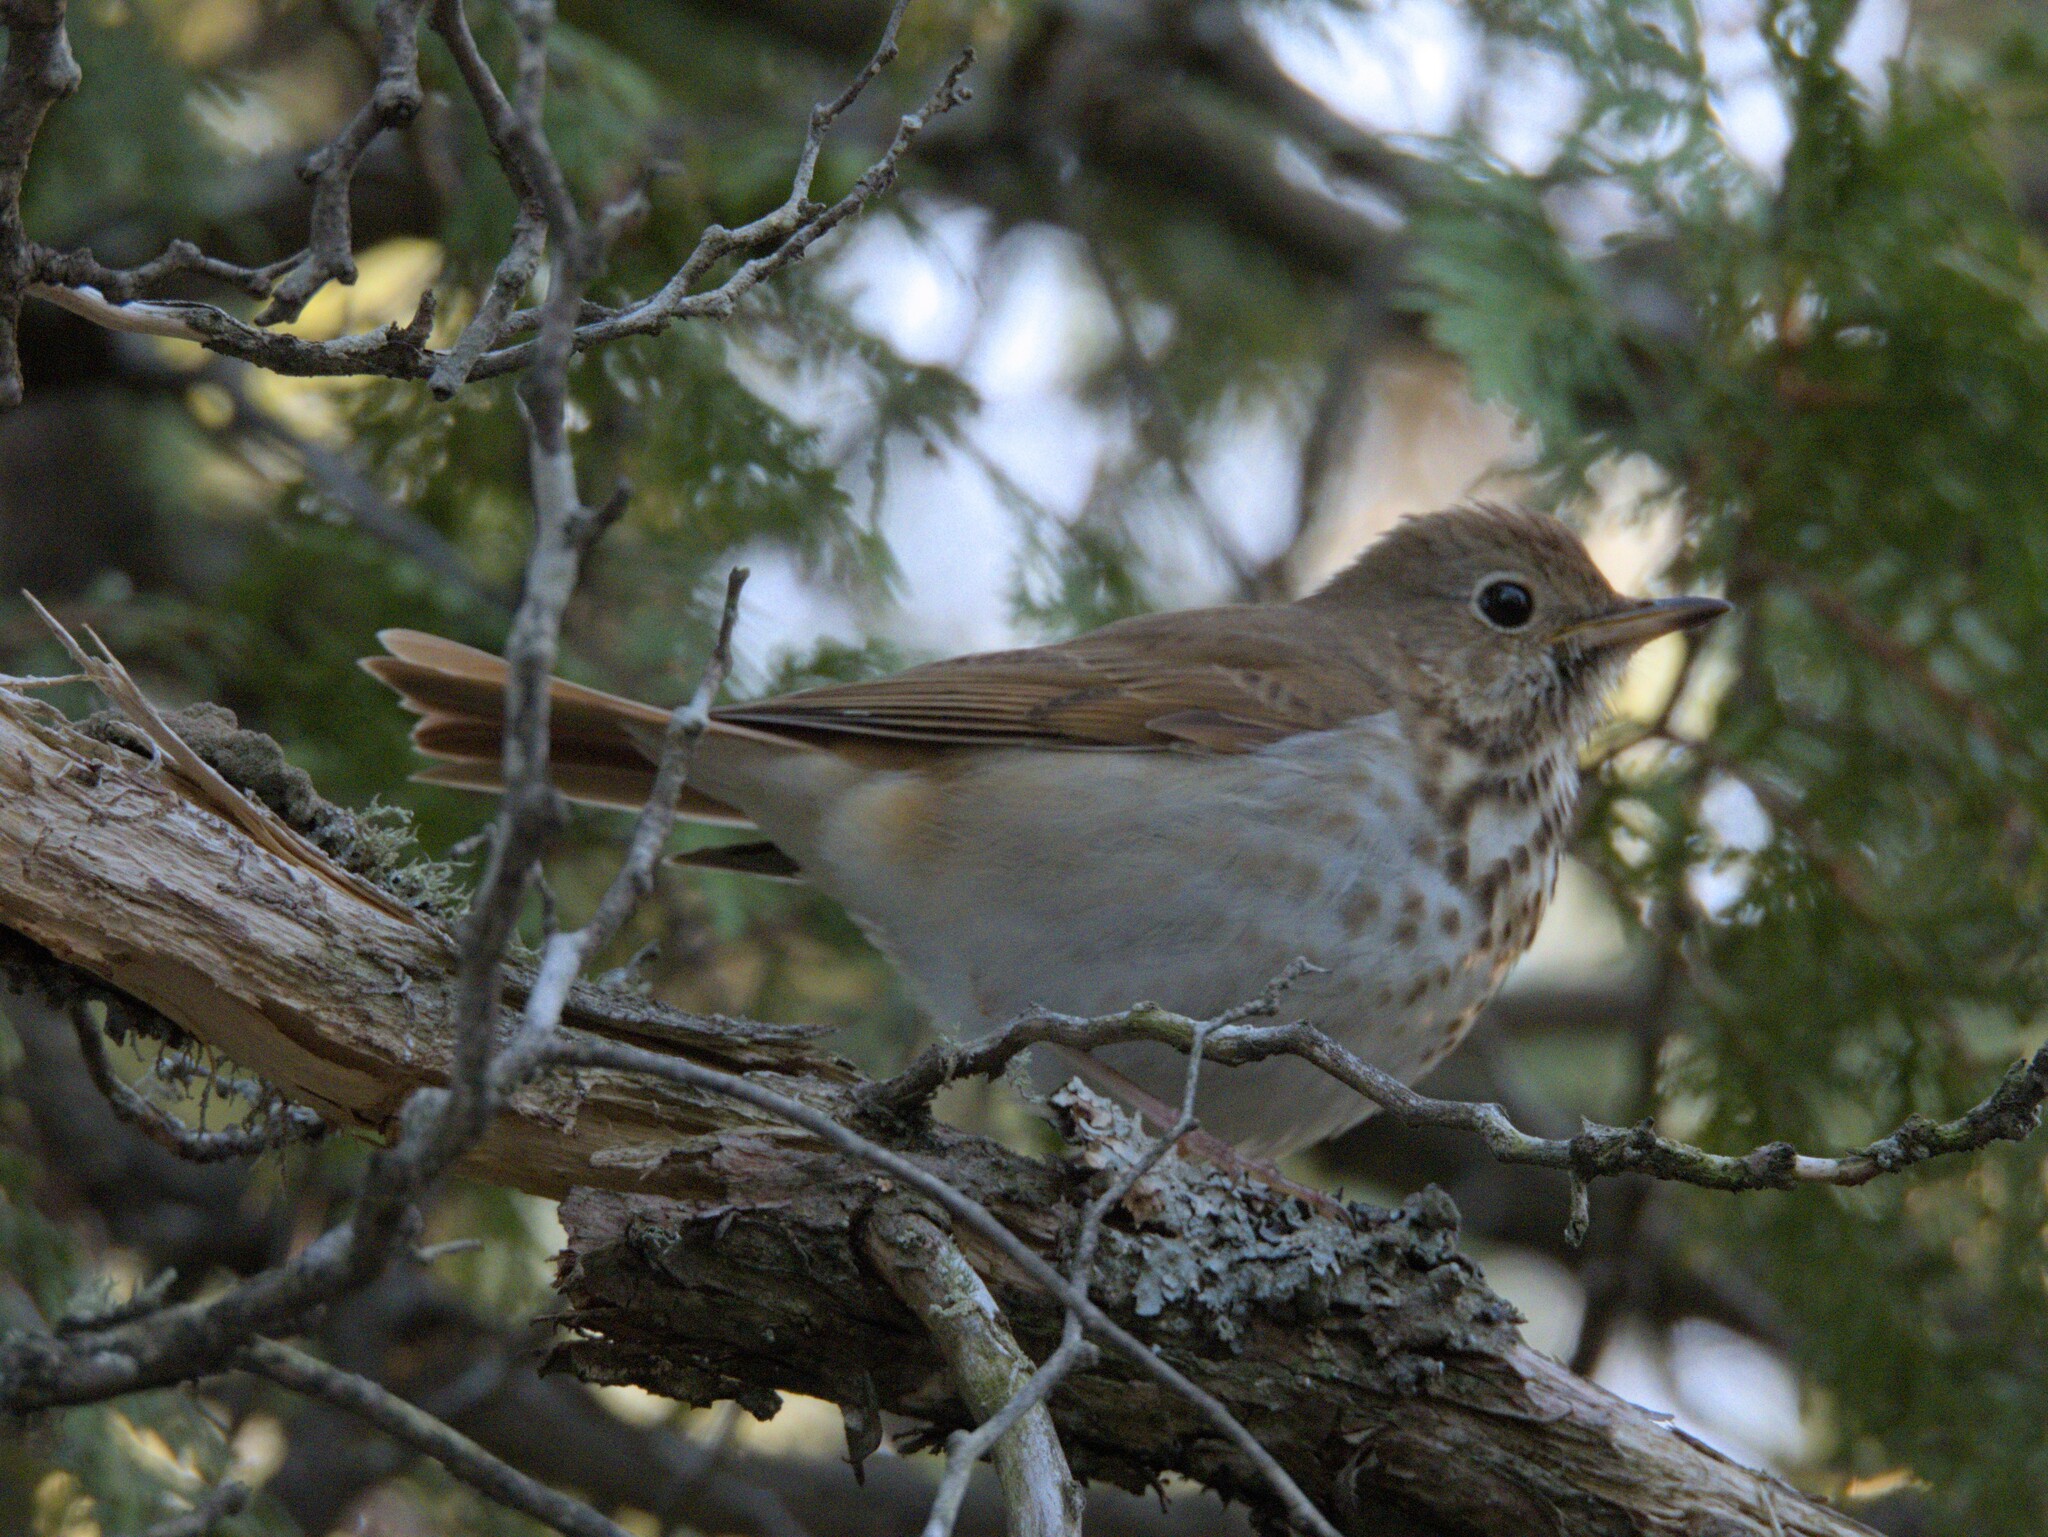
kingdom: Animalia
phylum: Chordata
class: Aves
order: Passeriformes
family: Turdidae
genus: Catharus
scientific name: Catharus guttatus
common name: Hermit thrush
